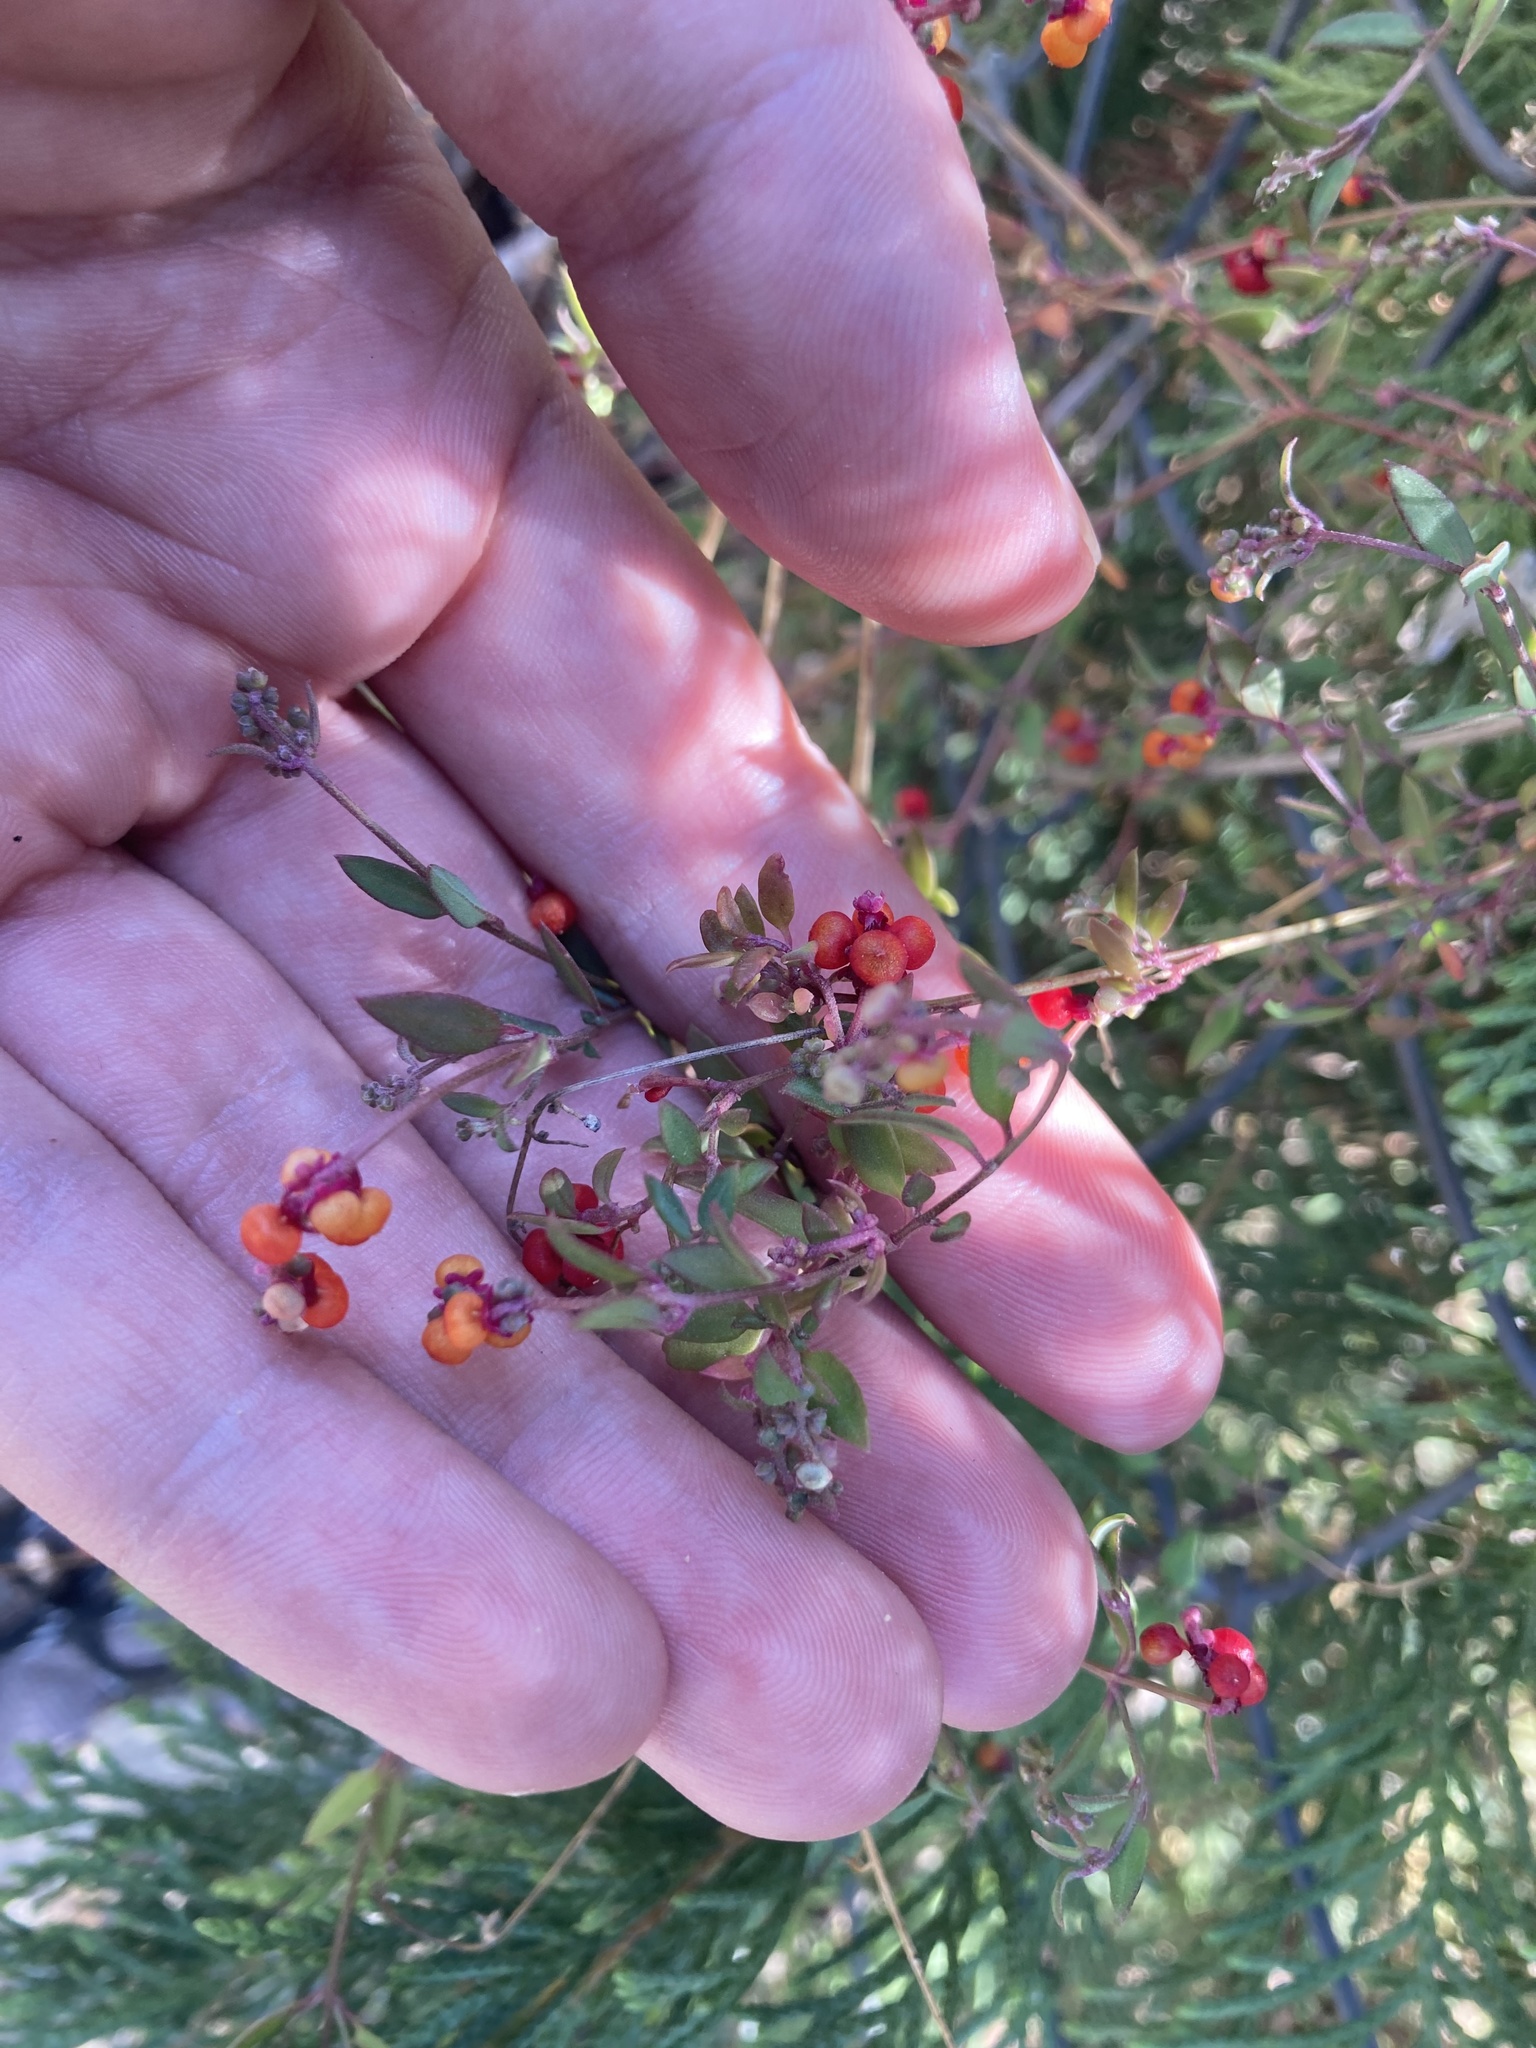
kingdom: Plantae
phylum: Tracheophyta
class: Magnoliopsida
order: Caryophyllales
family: Amaranthaceae
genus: Chenopodium
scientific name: Chenopodium nutans
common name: Climbing-saltbush
